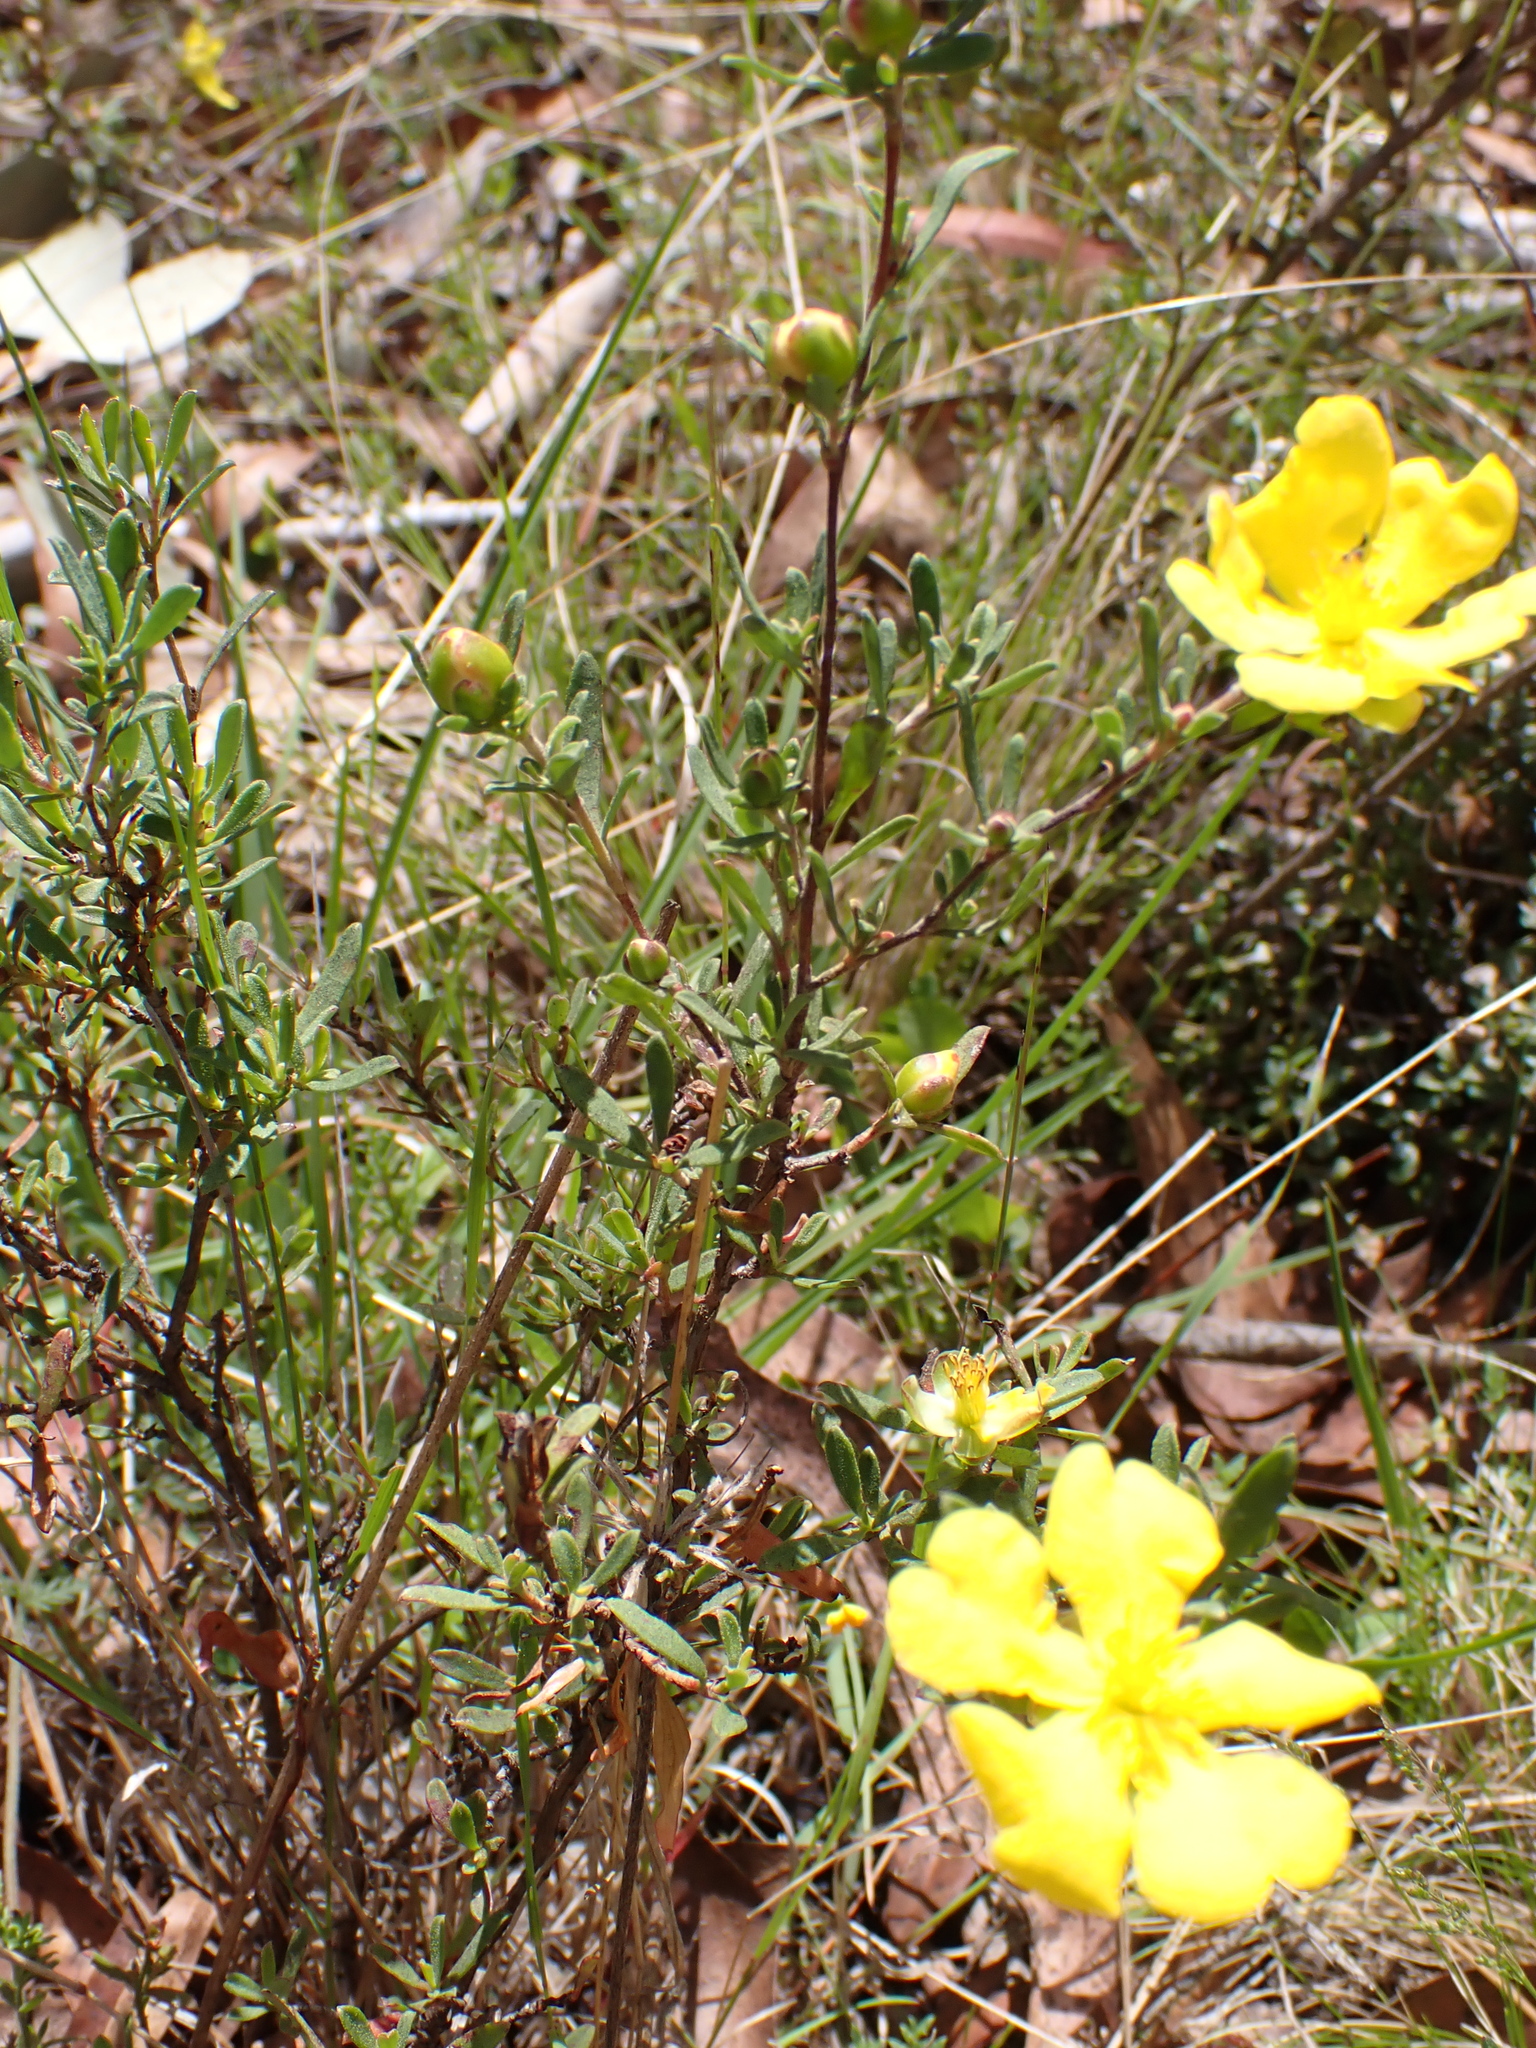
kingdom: Plantae
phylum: Tracheophyta
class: Magnoliopsida
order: Dilleniales
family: Dilleniaceae
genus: Hibbertia
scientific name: Hibbertia obtusifolia
